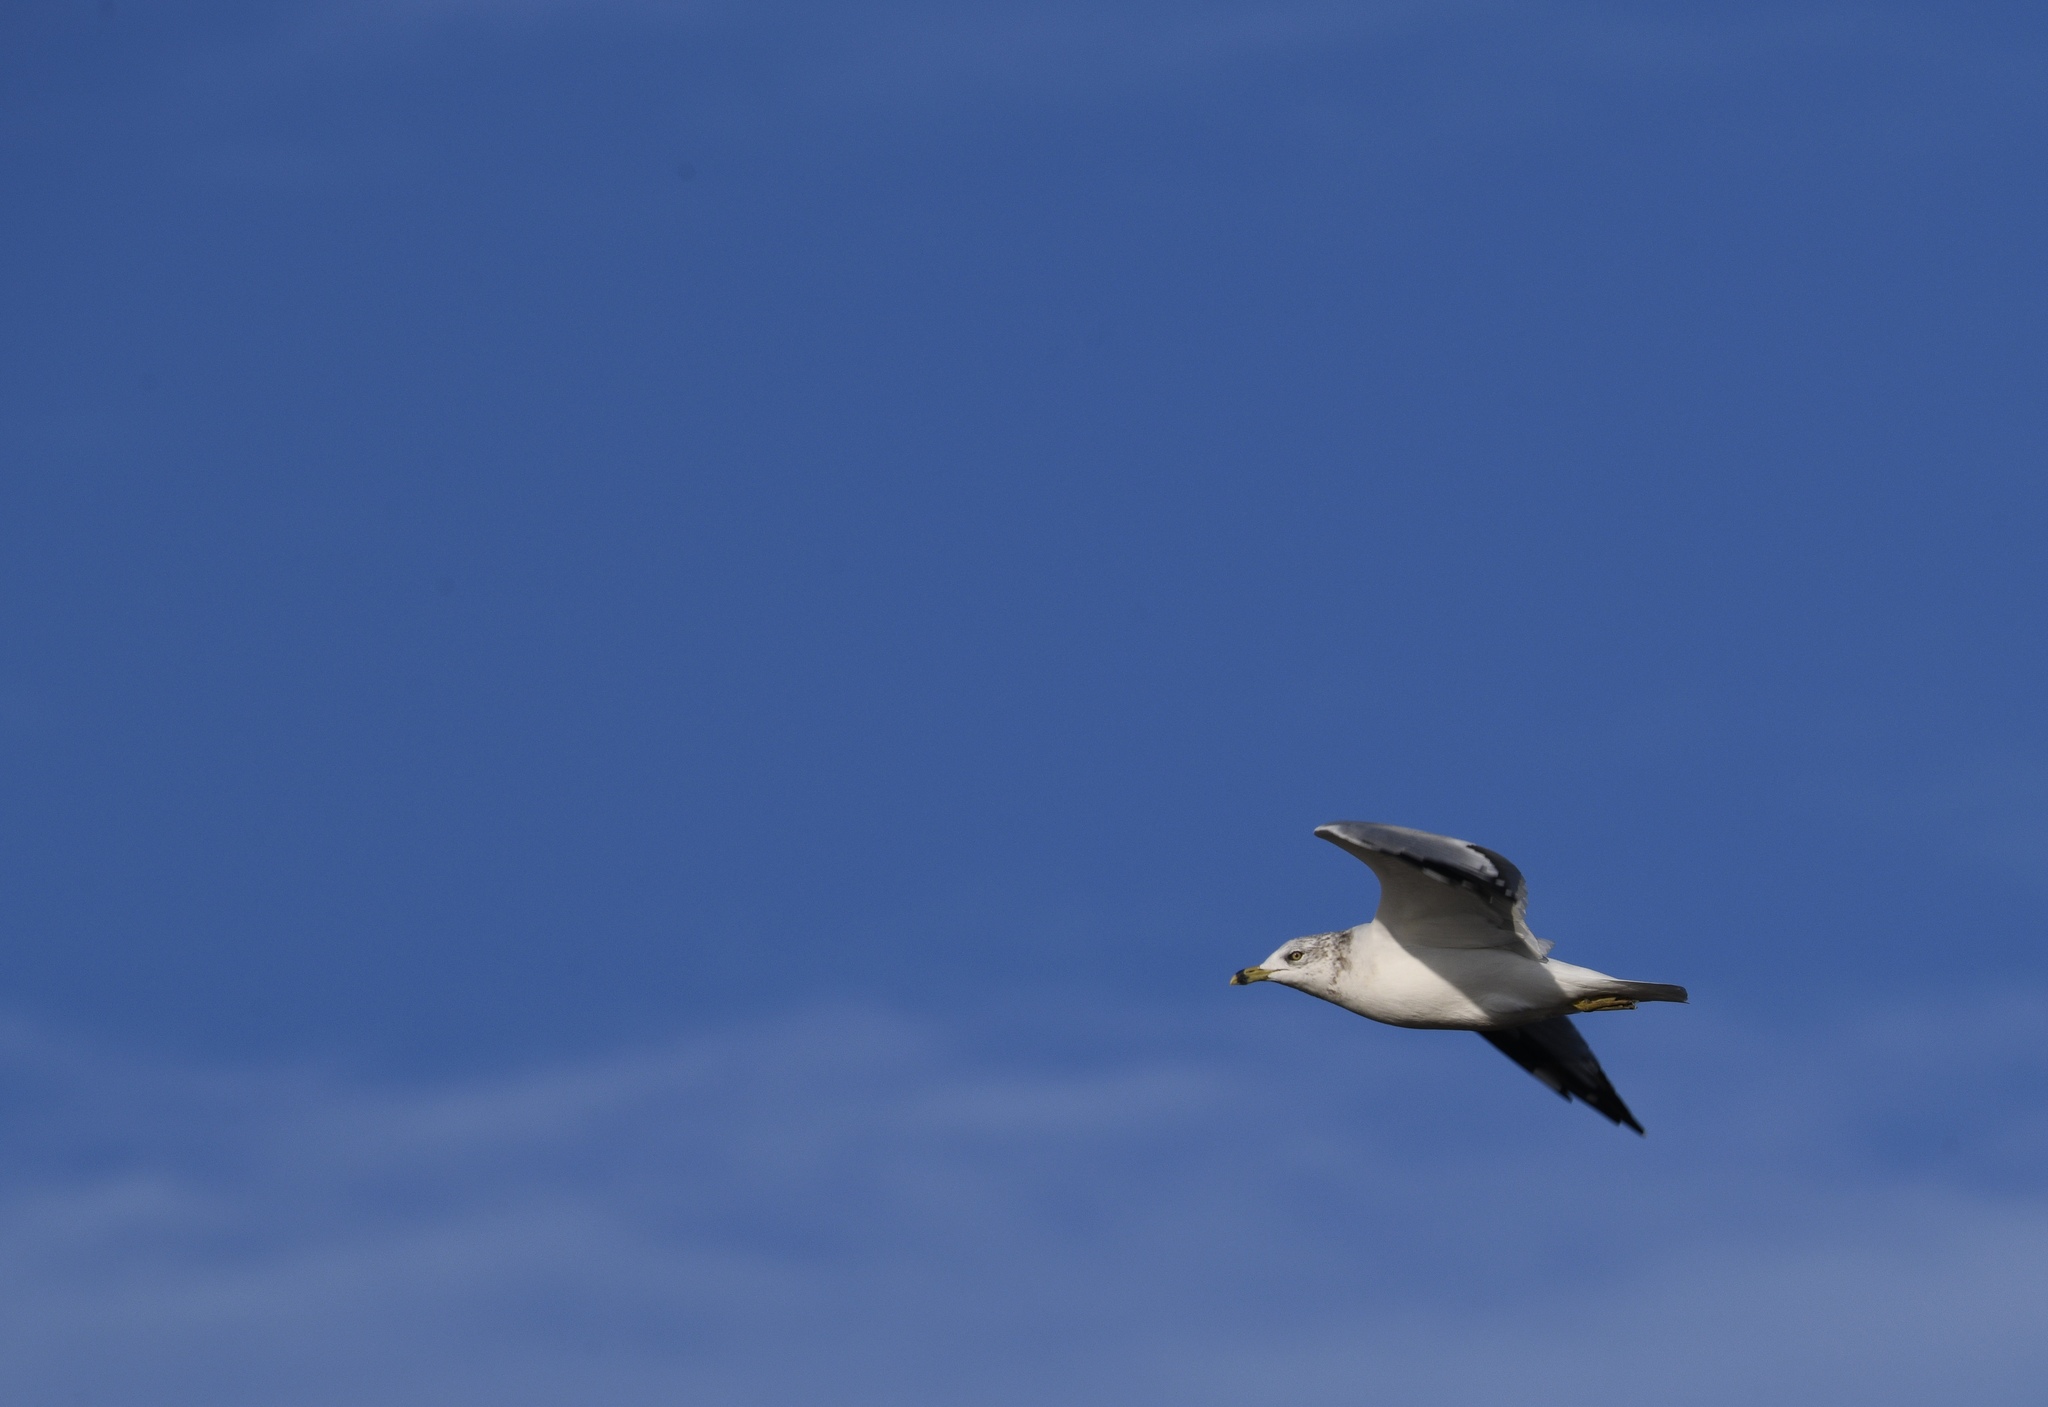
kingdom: Animalia
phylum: Chordata
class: Aves
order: Charadriiformes
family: Laridae
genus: Larus
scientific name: Larus delawarensis
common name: Ring-billed gull
